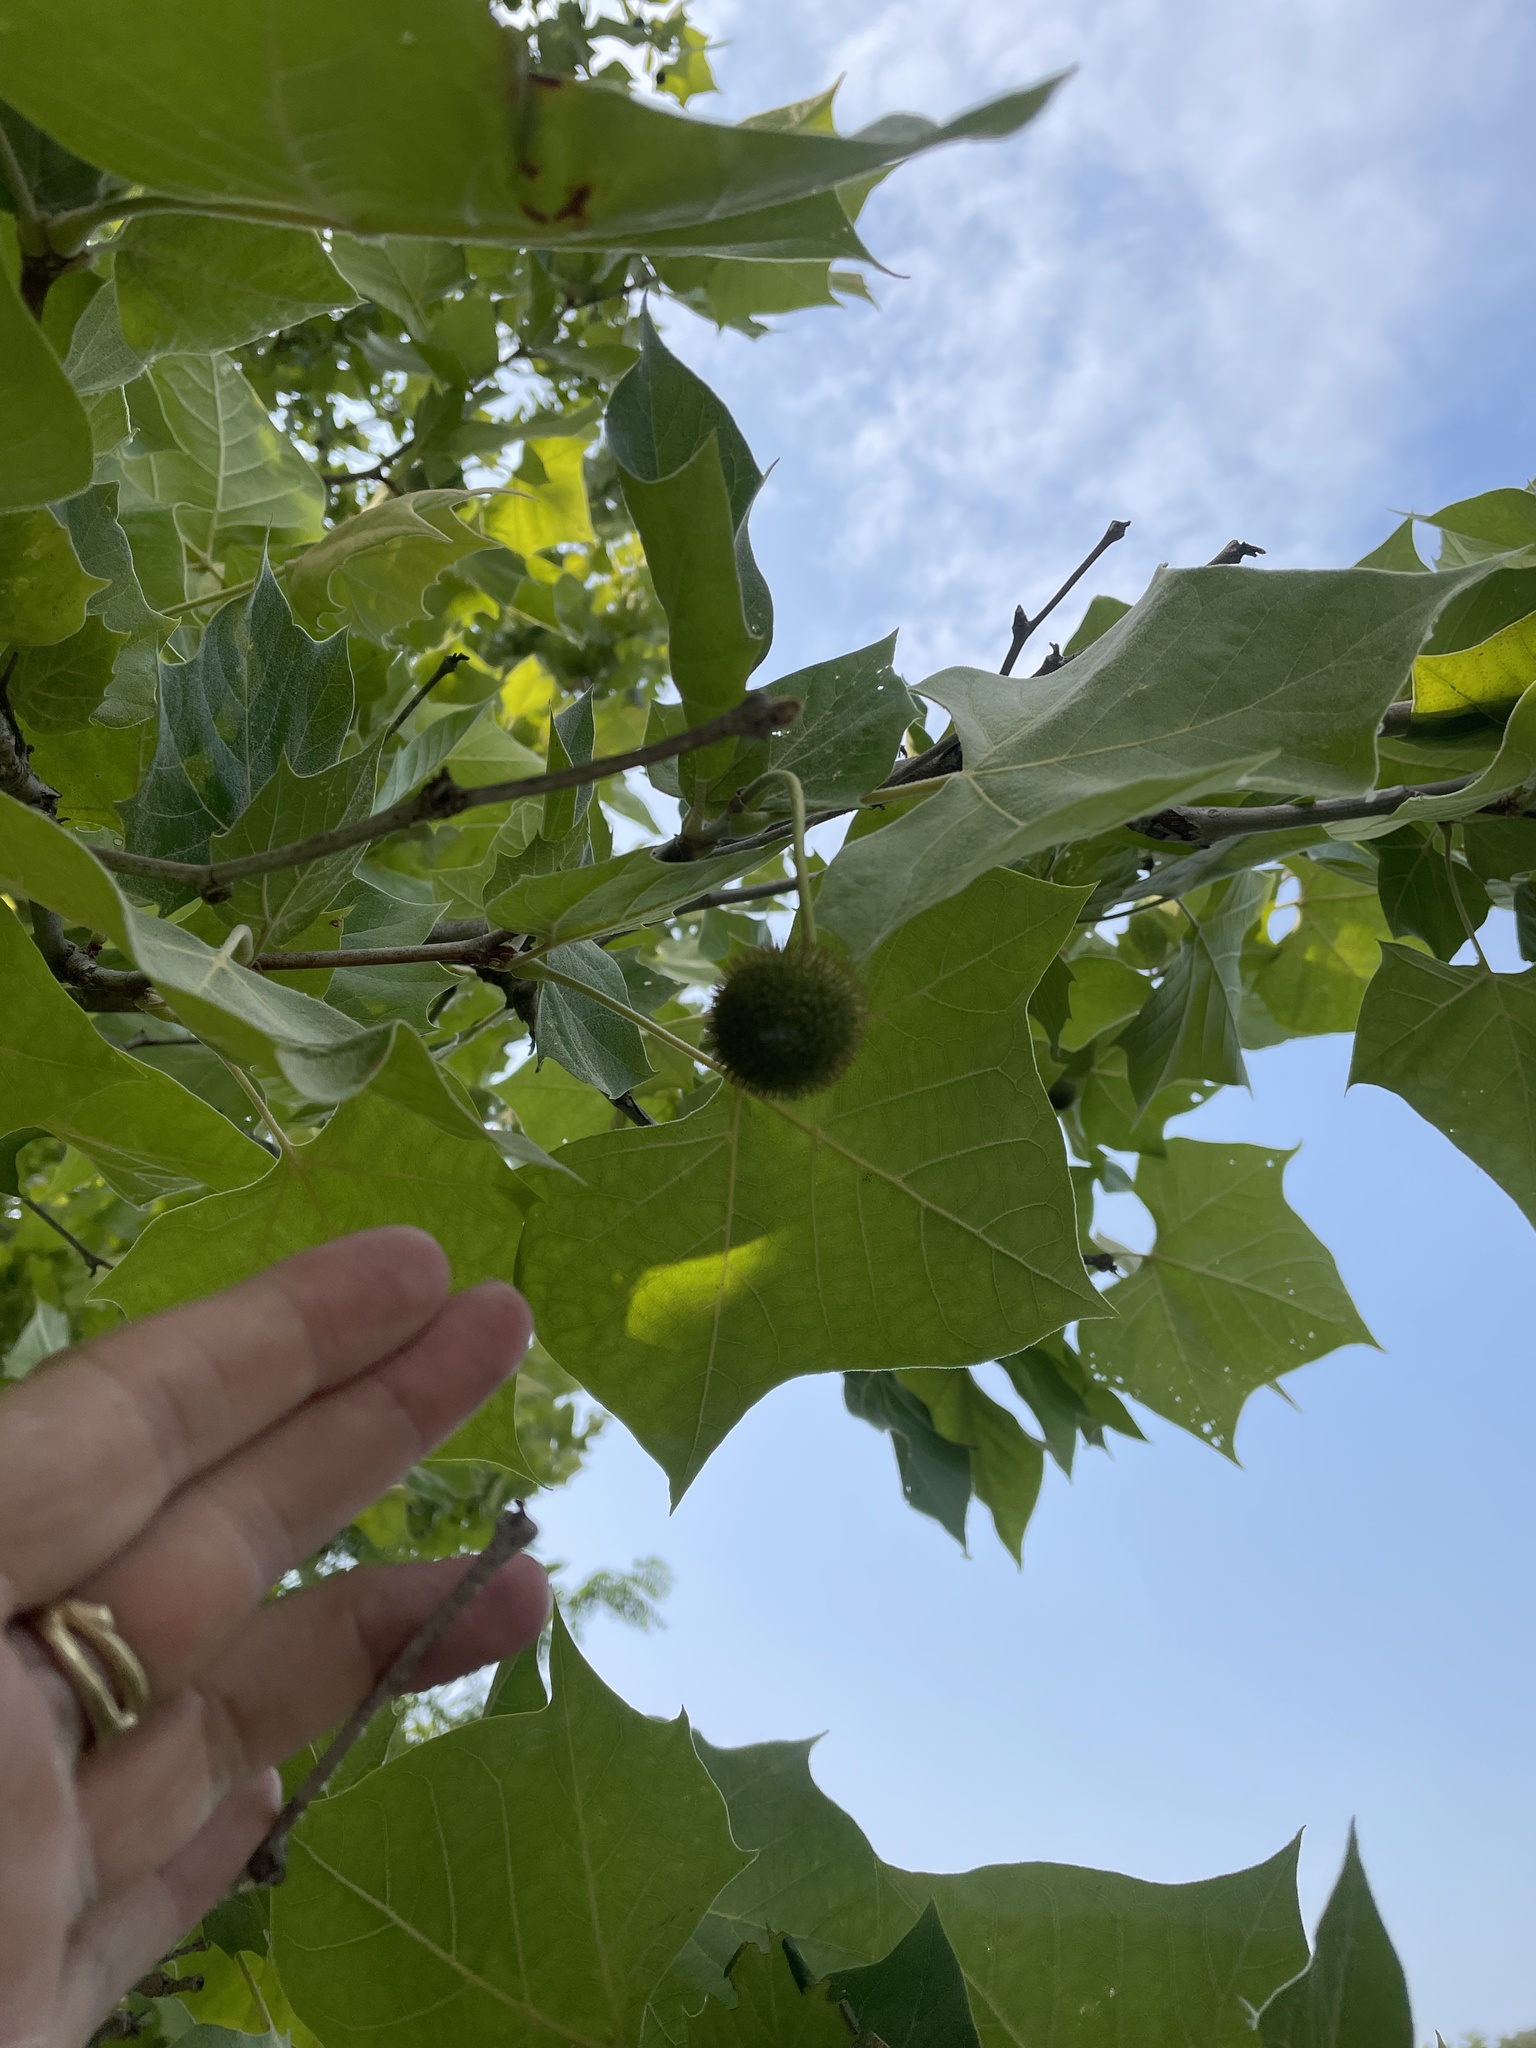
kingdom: Plantae
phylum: Tracheophyta
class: Magnoliopsida
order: Proteales
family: Platanaceae
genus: Platanus
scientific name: Platanus occidentalis
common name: American sycamore
